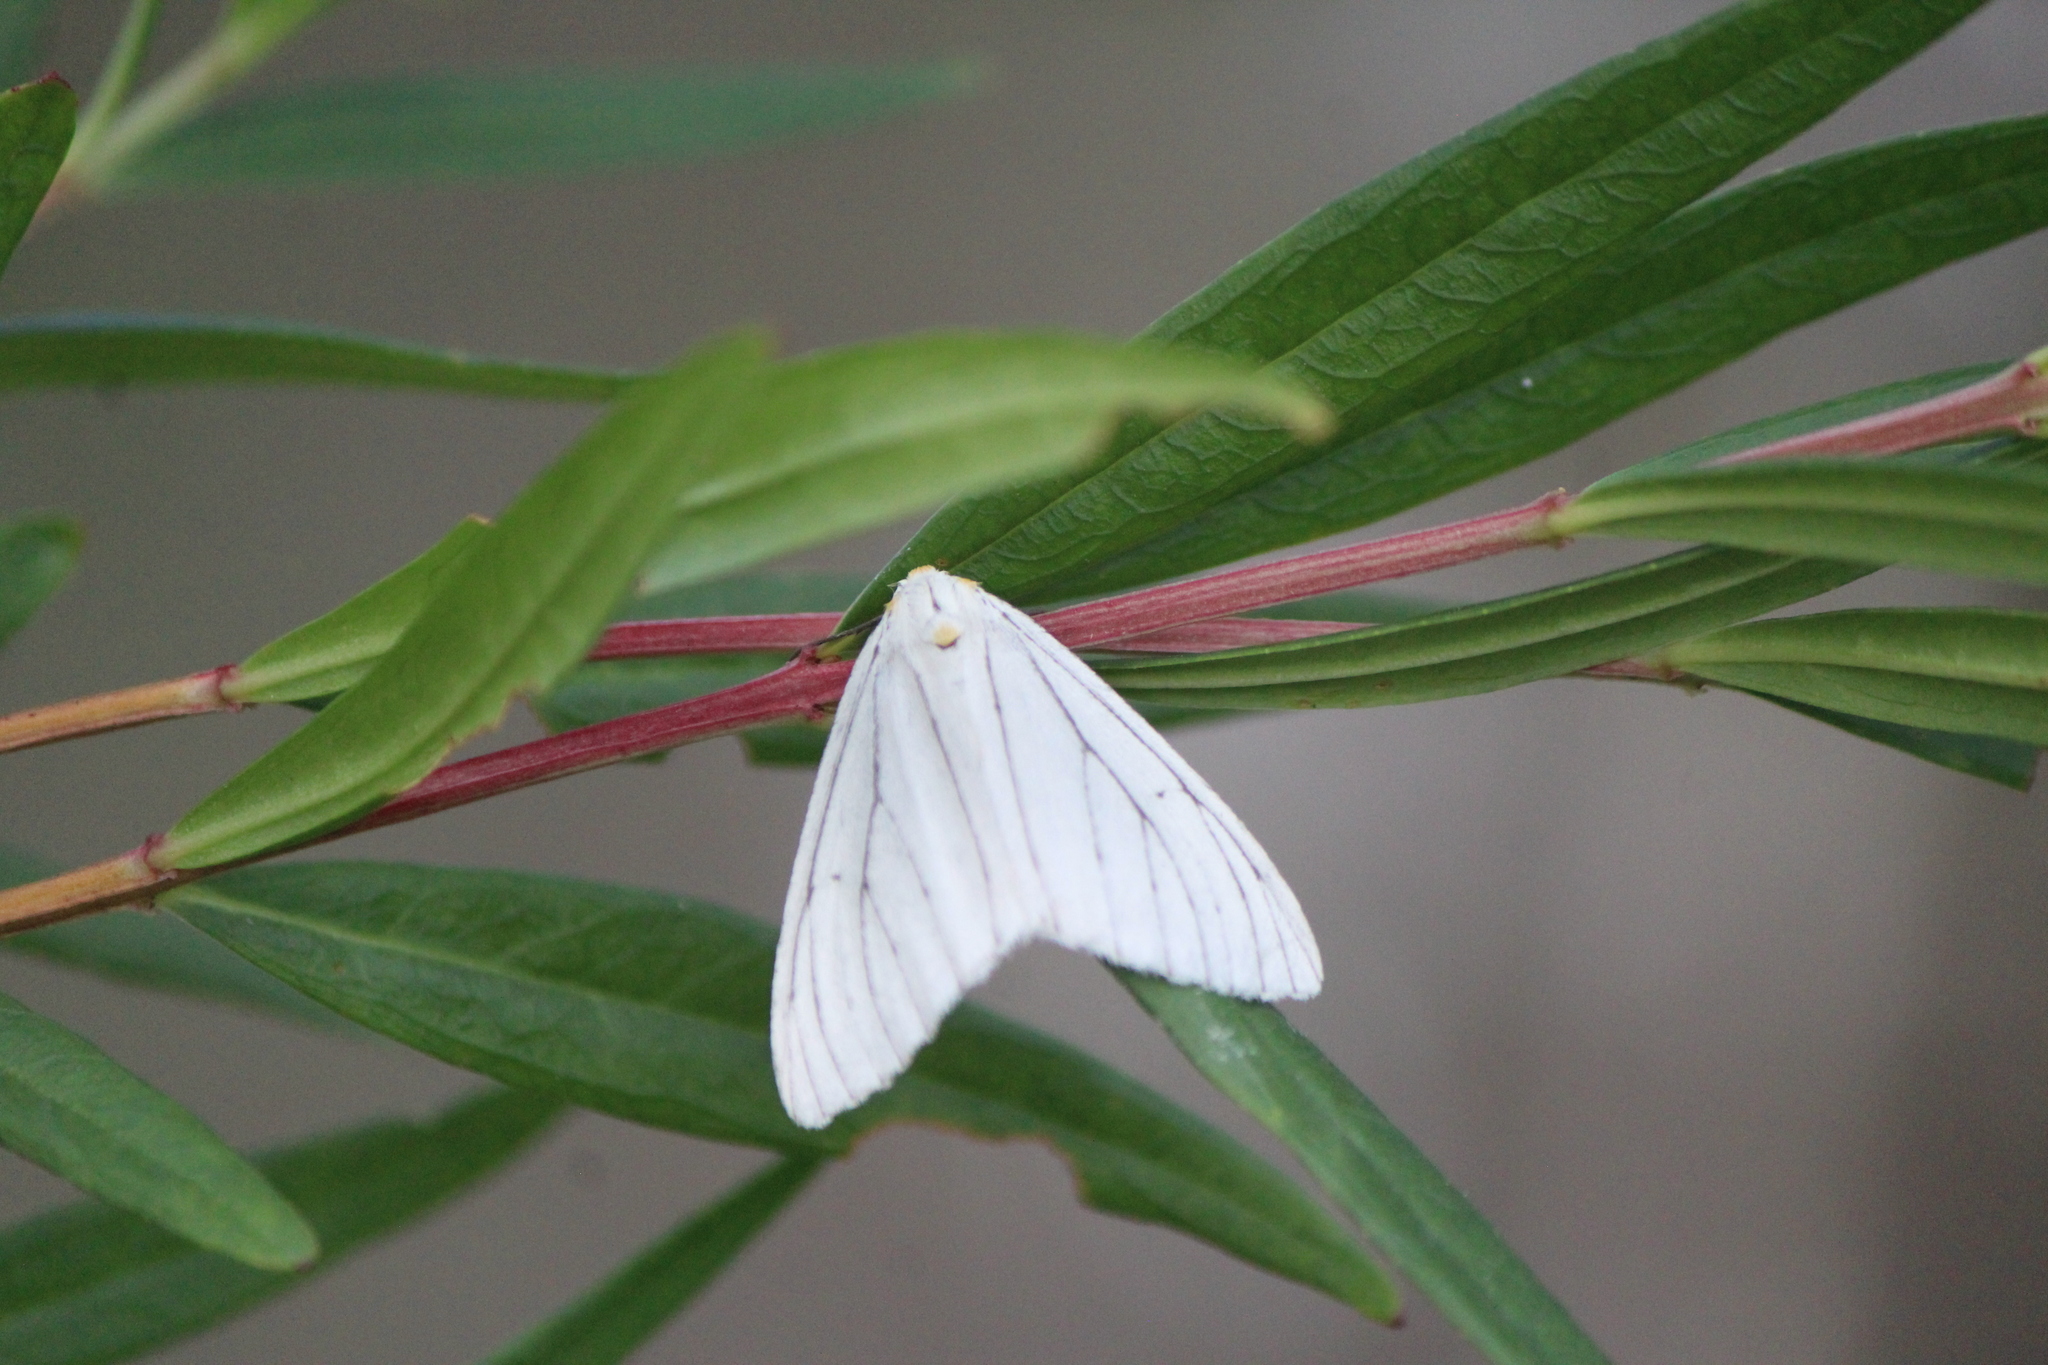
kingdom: Animalia
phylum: Arthropoda
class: Insecta
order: Lepidoptera
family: Geometridae
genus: Neuromelia
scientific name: Neuromelia selectata
